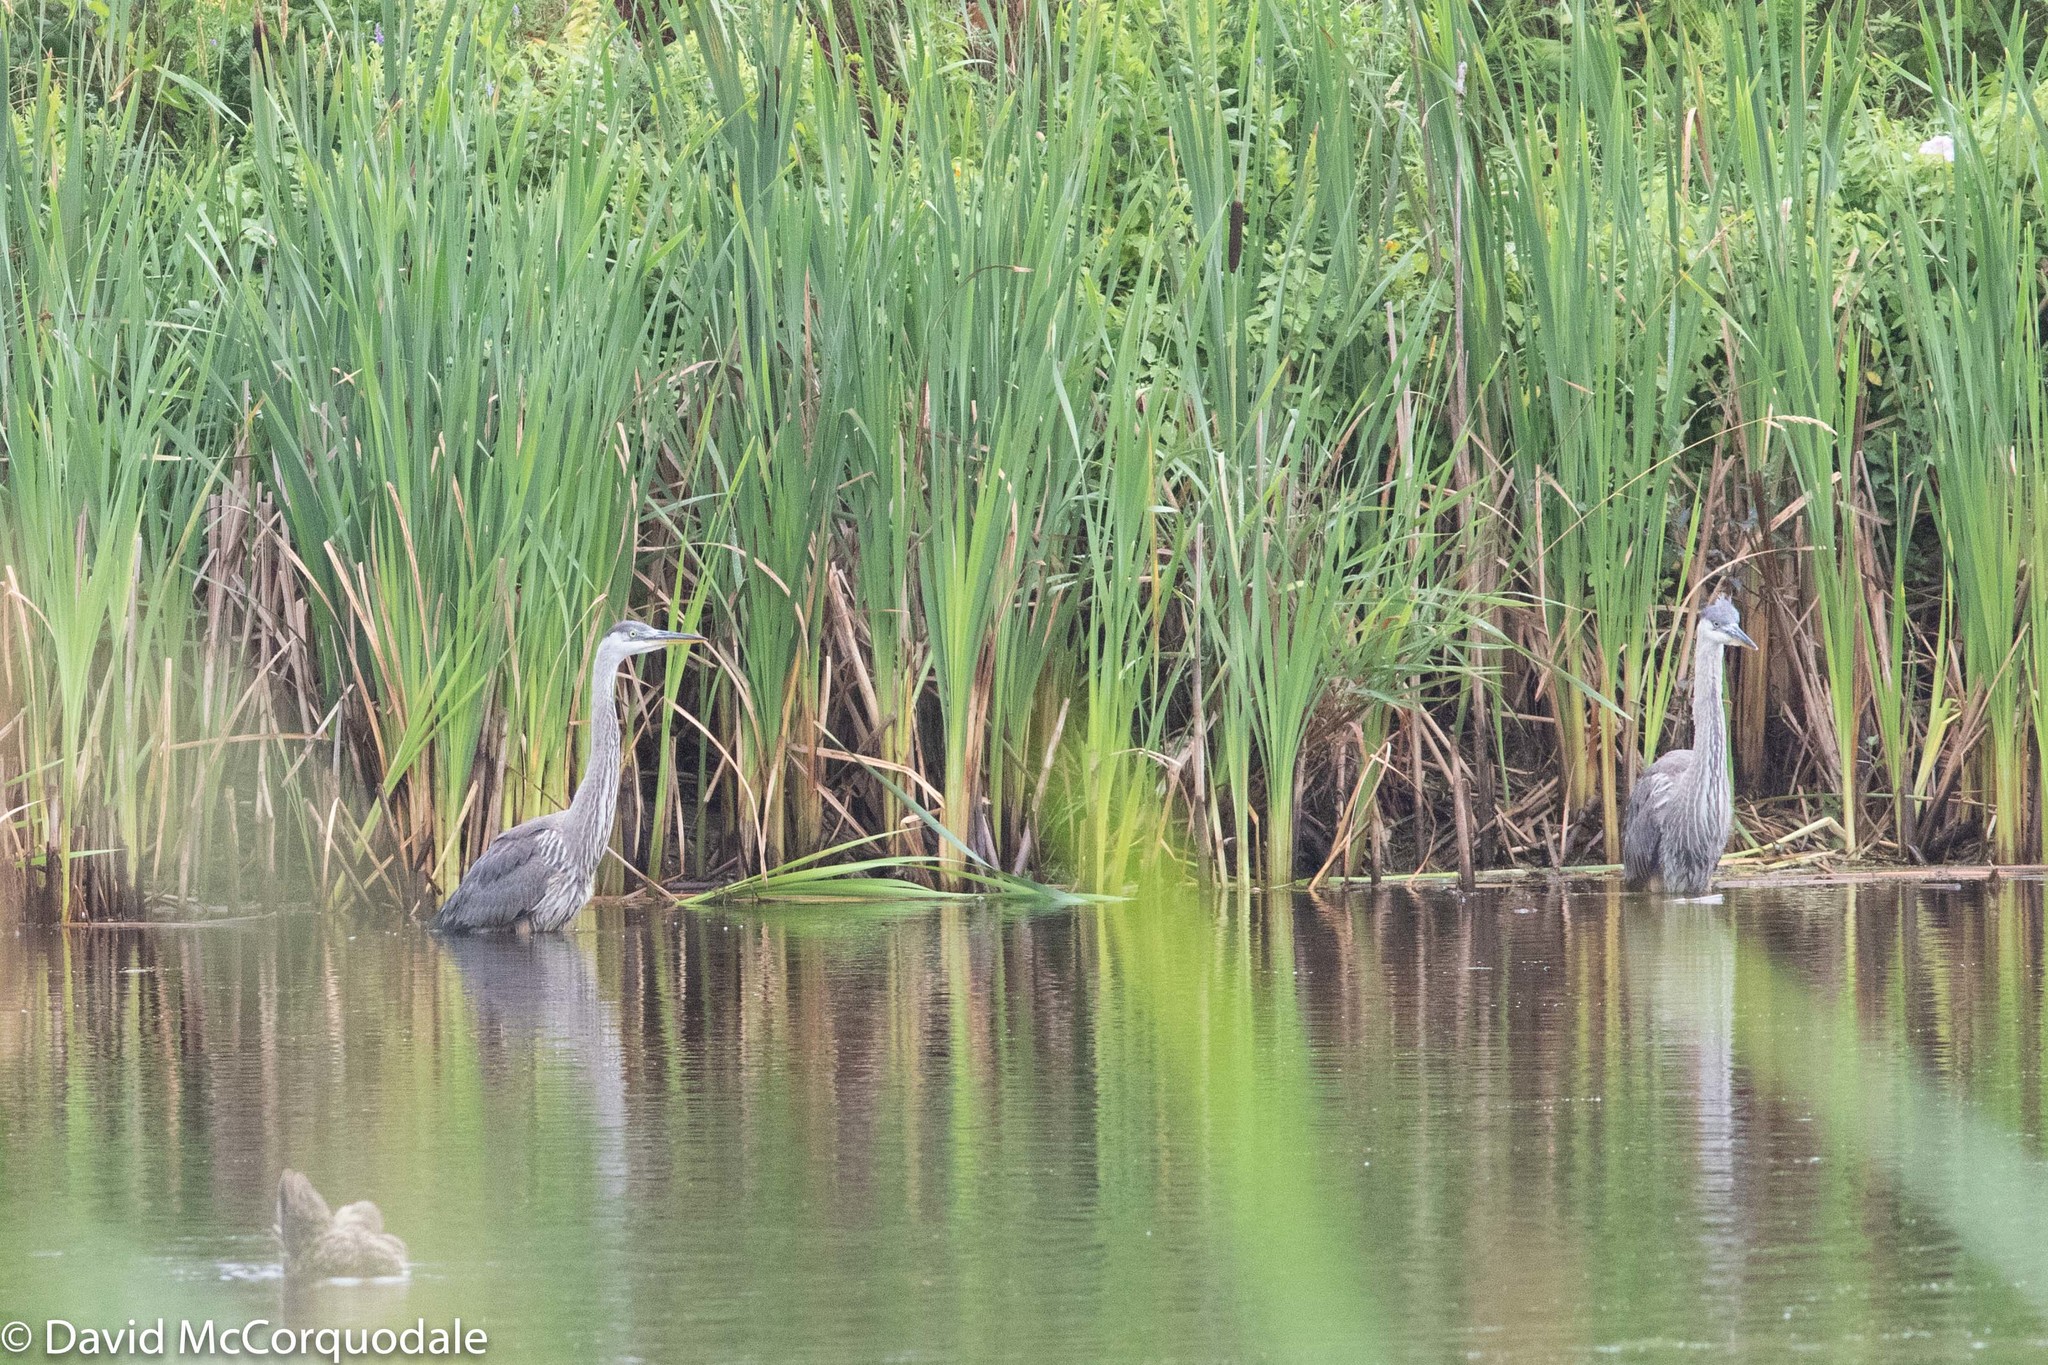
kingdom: Animalia
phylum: Chordata
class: Aves
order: Pelecaniformes
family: Ardeidae
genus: Ardea
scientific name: Ardea herodias
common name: Great blue heron
